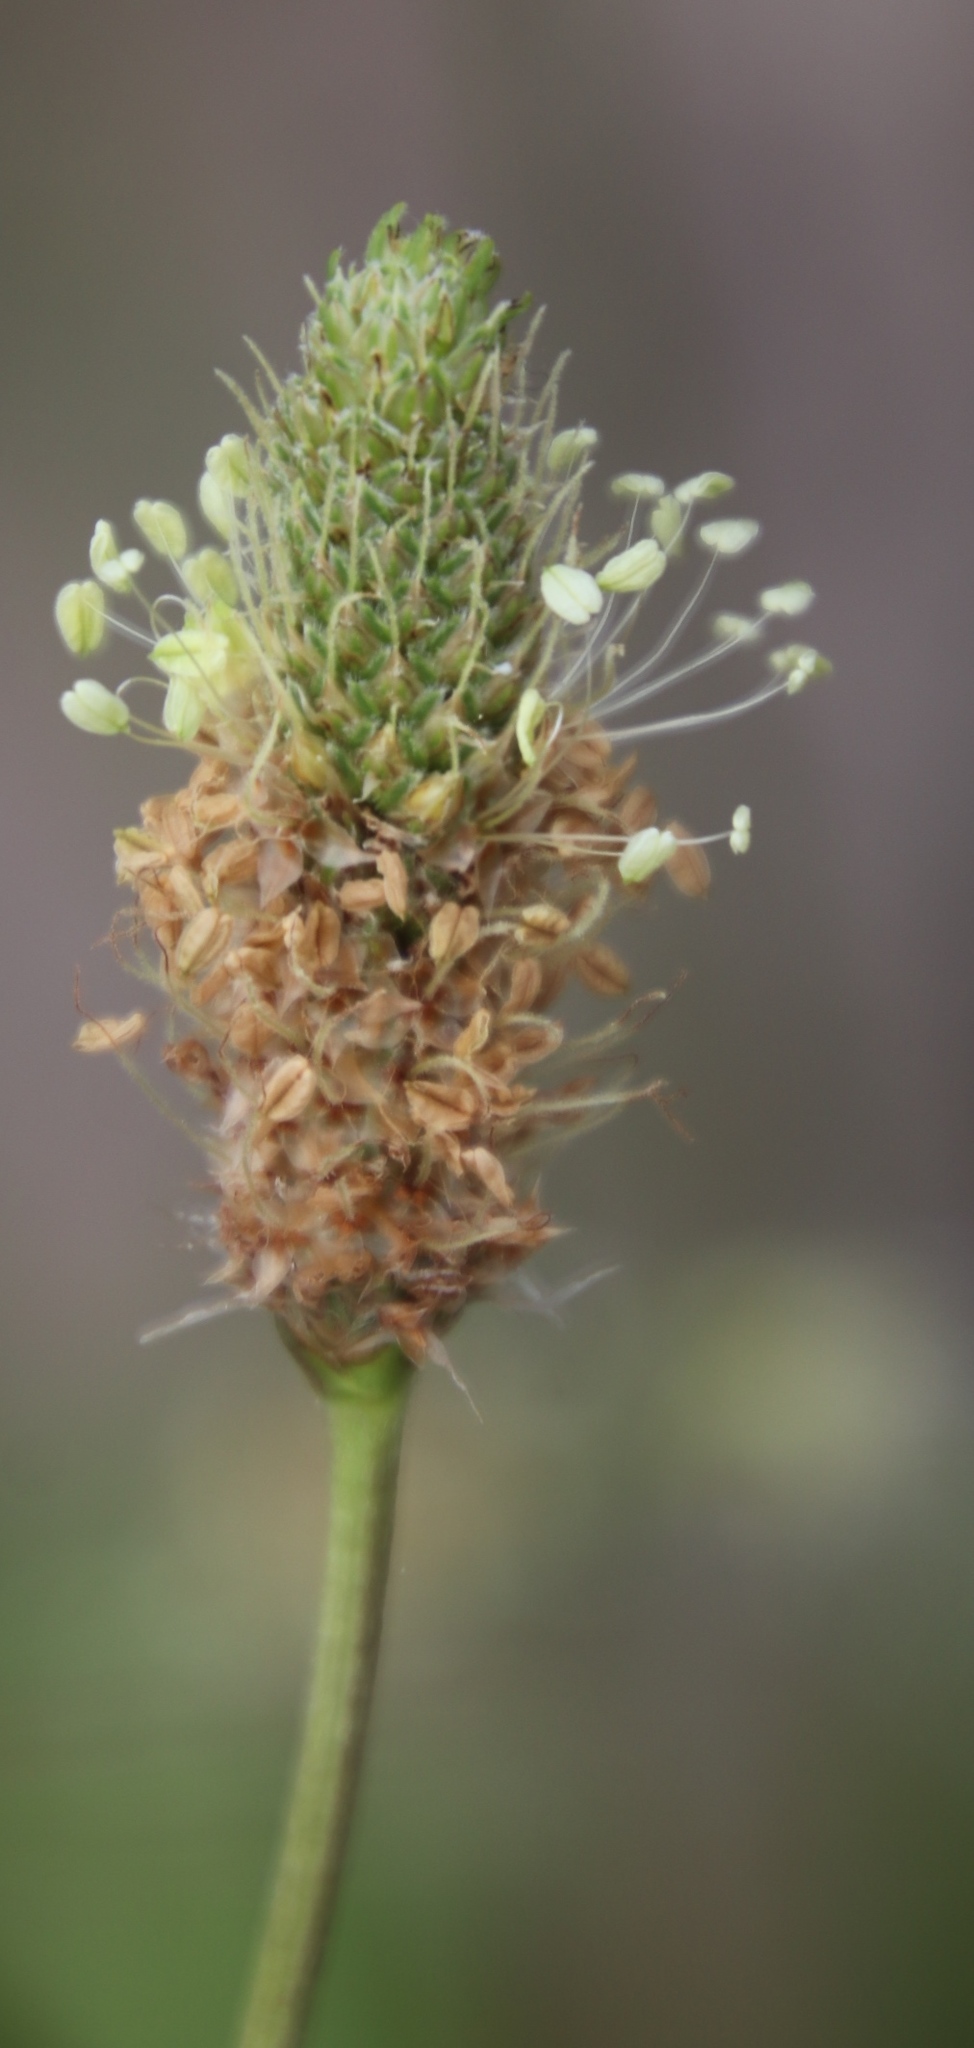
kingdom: Plantae
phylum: Tracheophyta
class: Magnoliopsida
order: Lamiales
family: Plantaginaceae
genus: Plantago
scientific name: Plantago lanceolata
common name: Ribwort plantain
